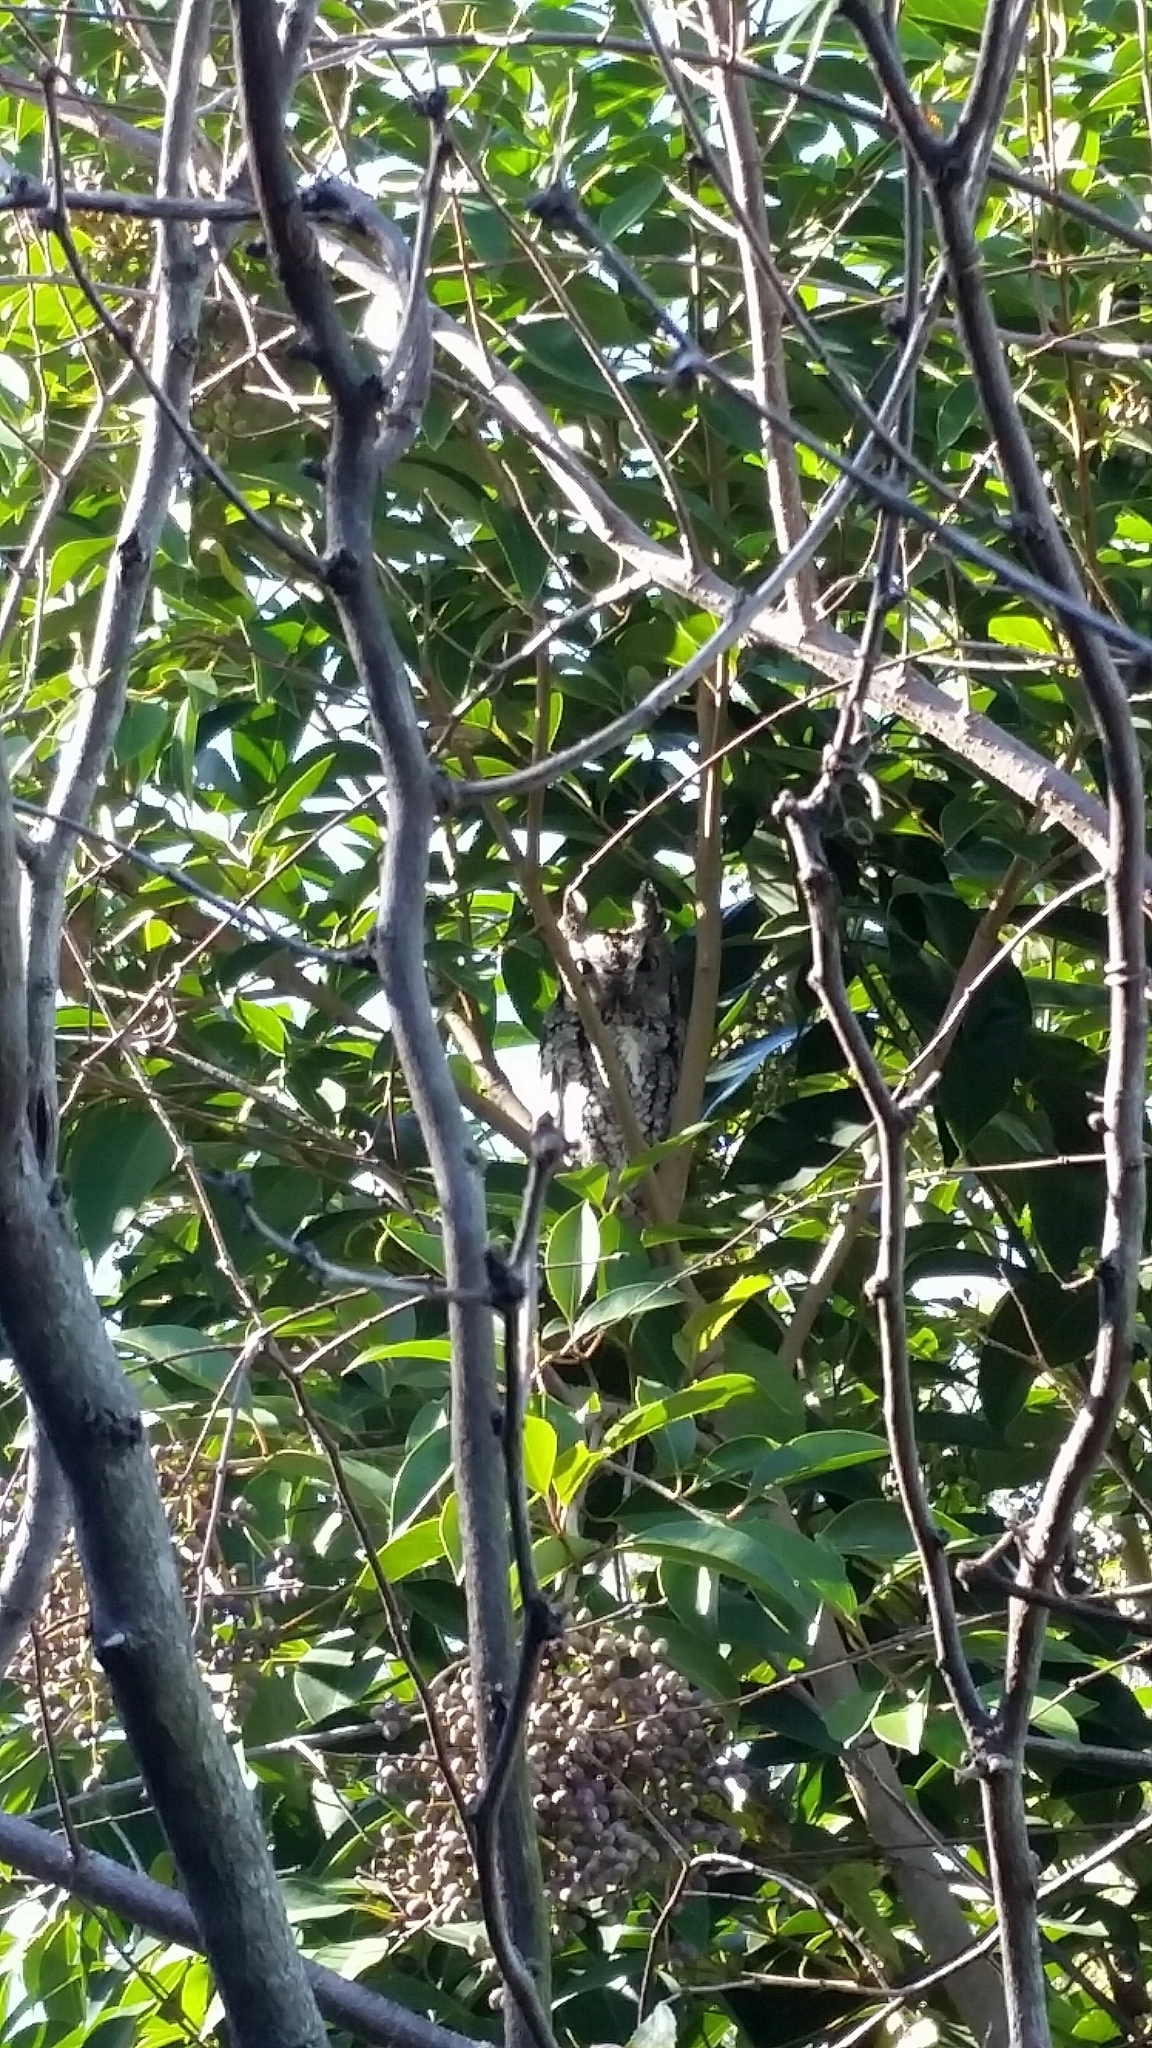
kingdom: Animalia
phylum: Chordata
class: Aves
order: Strigiformes
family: Strigidae
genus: Megascops
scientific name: Megascops asio
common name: Eastern screech-owl
